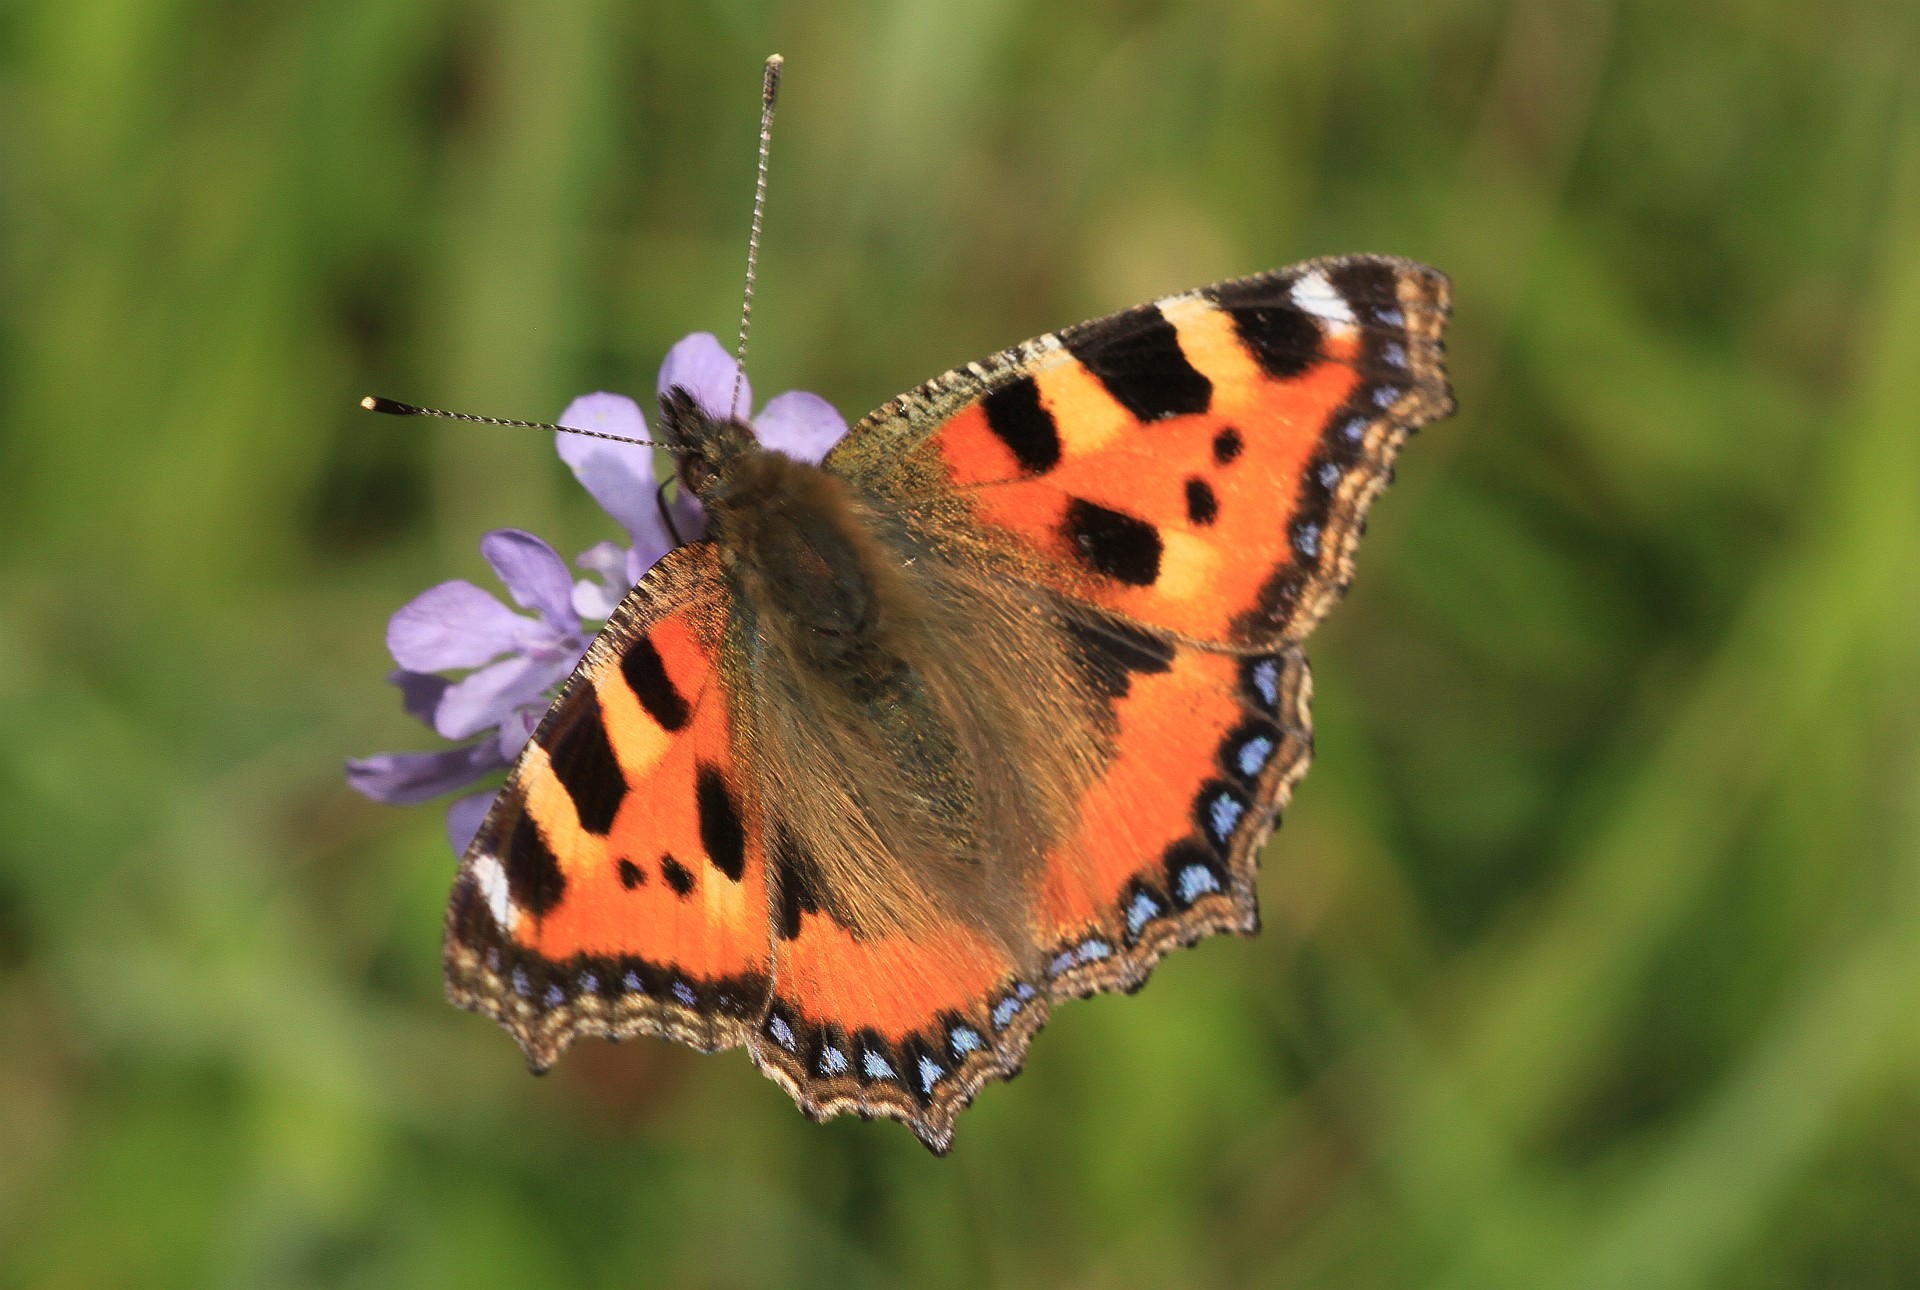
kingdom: Animalia
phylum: Arthropoda
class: Insecta
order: Lepidoptera
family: Nymphalidae
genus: Aglais
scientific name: Aglais urticae
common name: Small tortoiseshell
